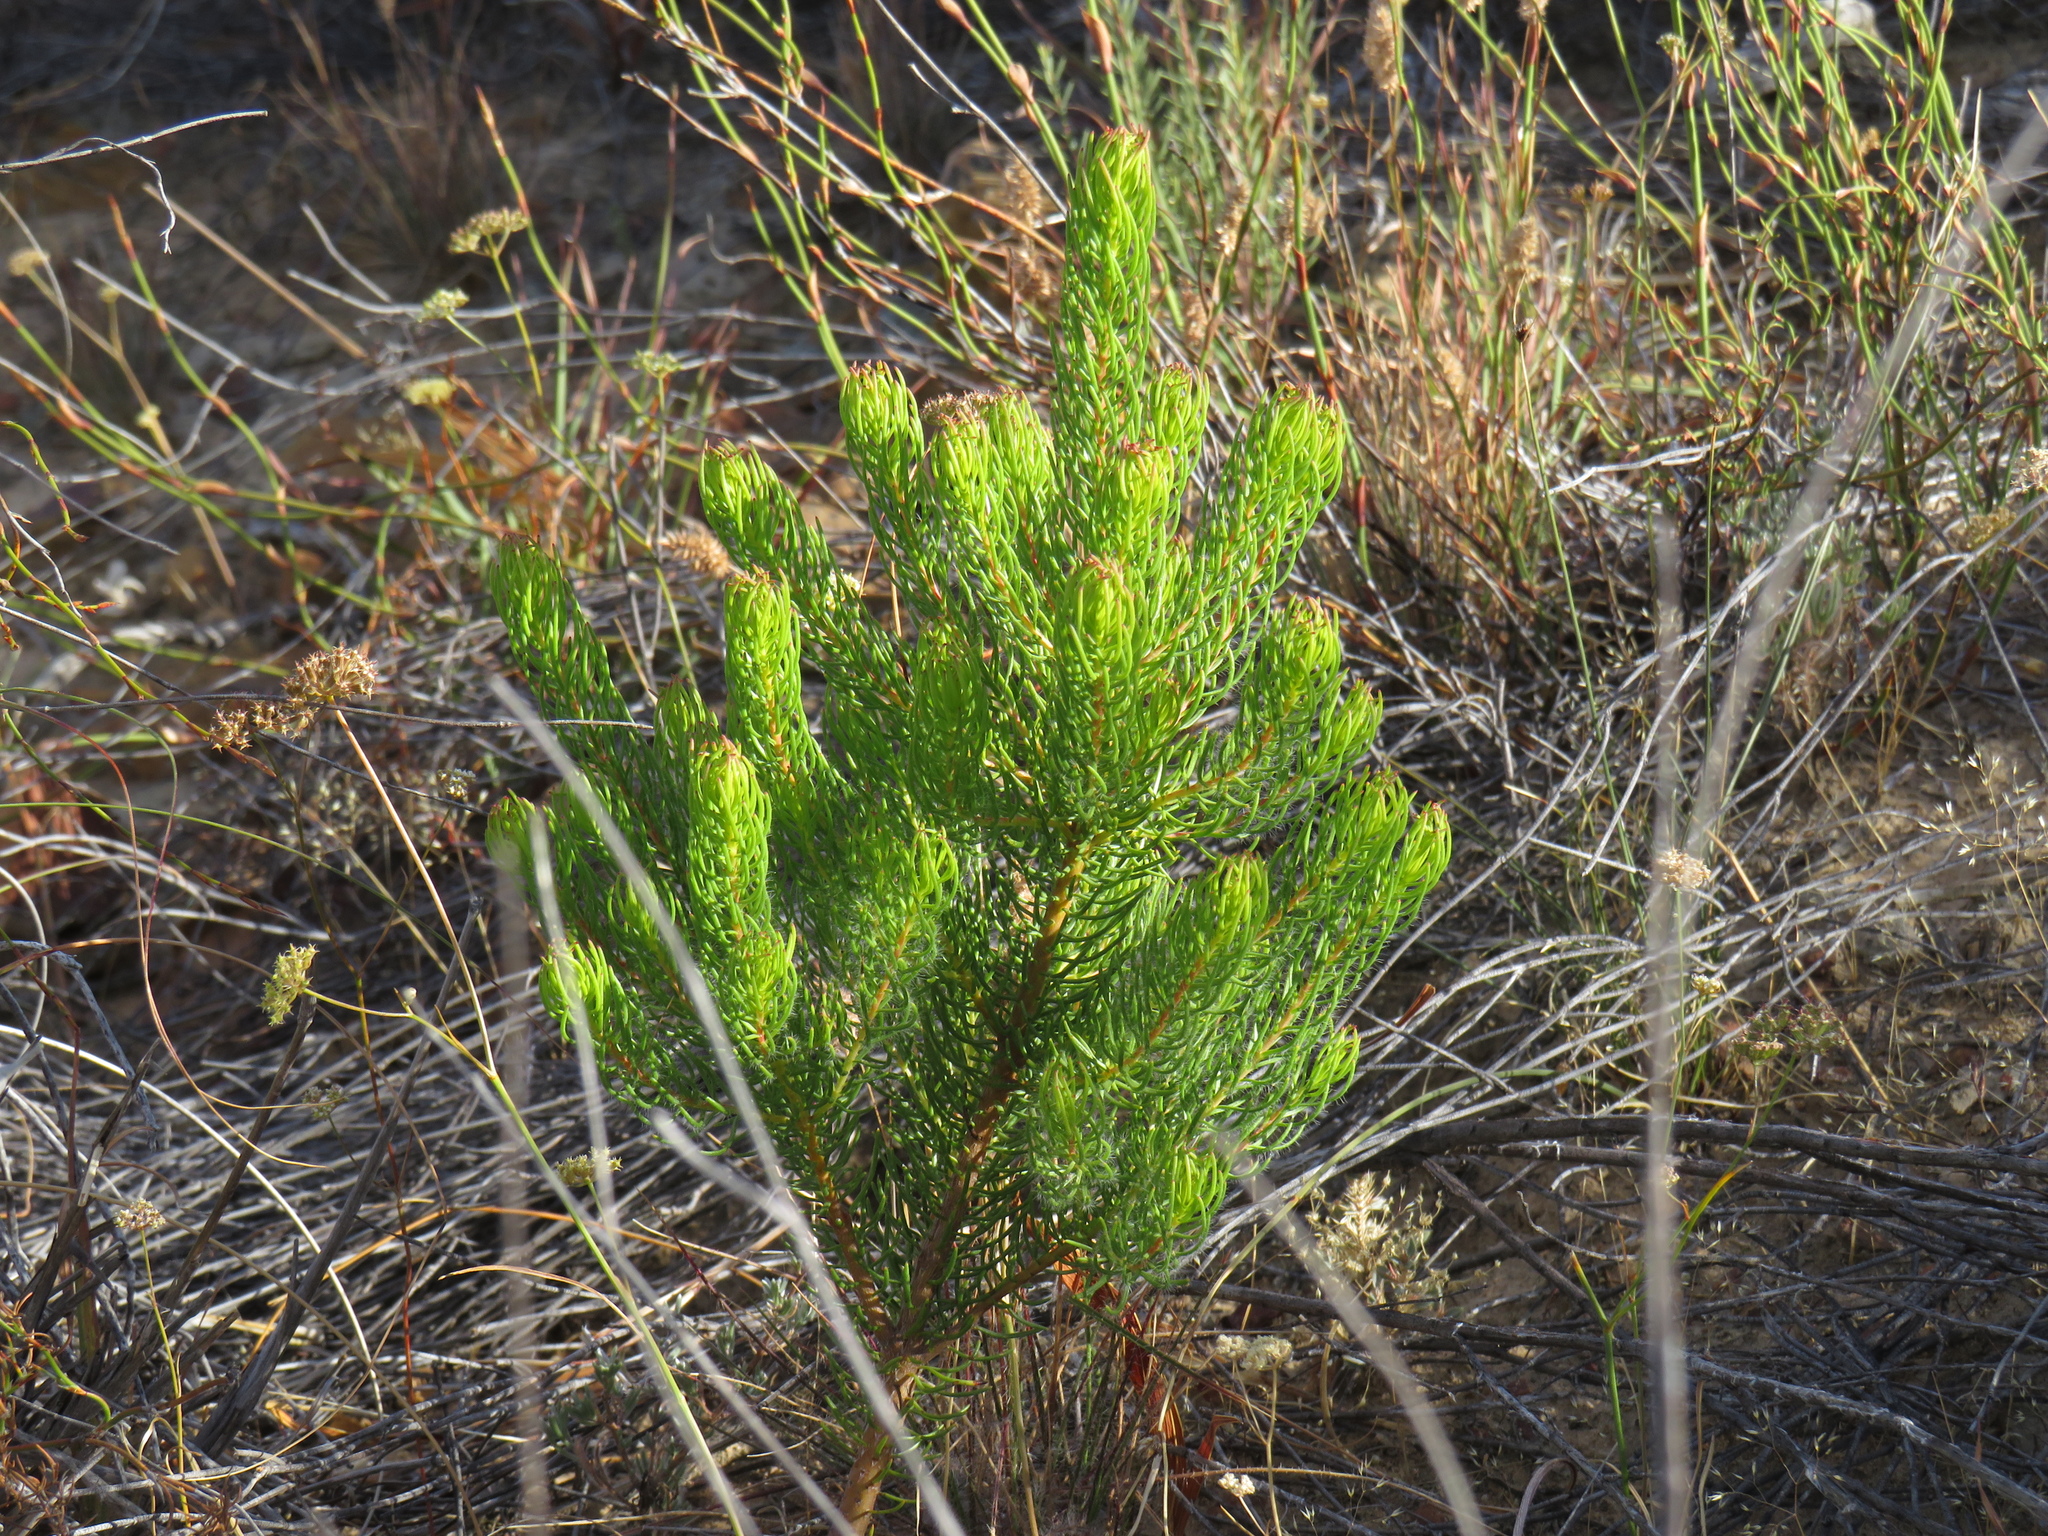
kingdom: Plantae
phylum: Tracheophyta
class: Magnoliopsida
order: Proteales
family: Proteaceae
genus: Leucadendron
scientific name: Leucadendron teretifolium
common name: Needle-leaf conebush
